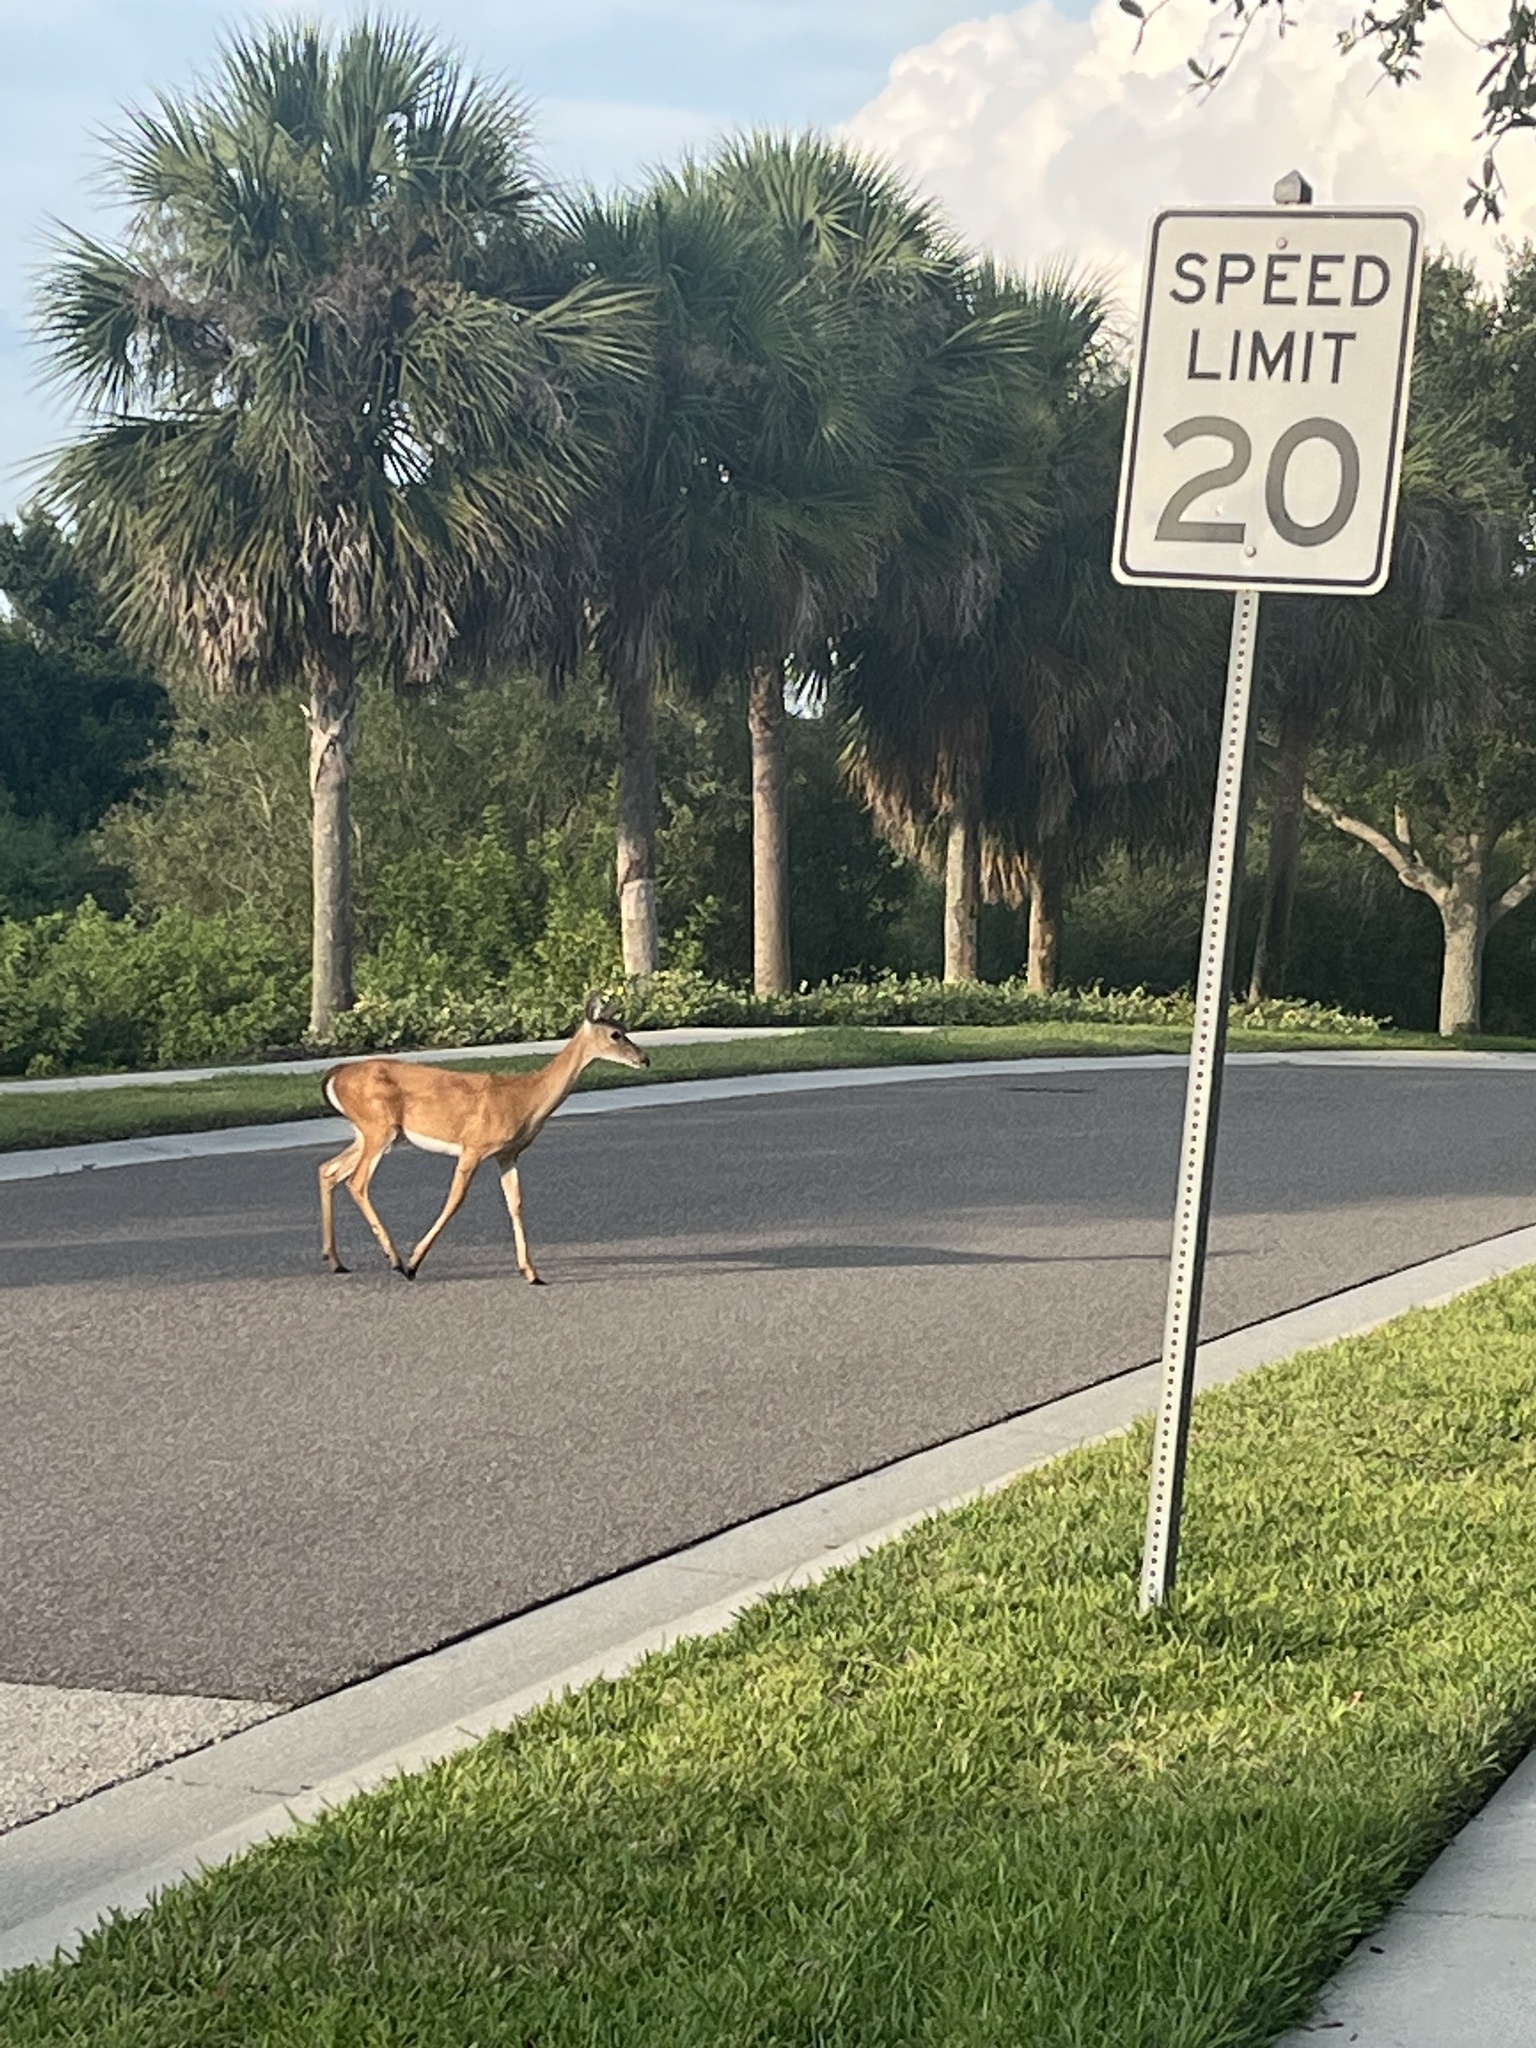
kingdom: Animalia
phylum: Chordata
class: Mammalia
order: Artiodactyla
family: Cervidae
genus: Odocoileus
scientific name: Odocoileus virginianus
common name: White-tailed deer
